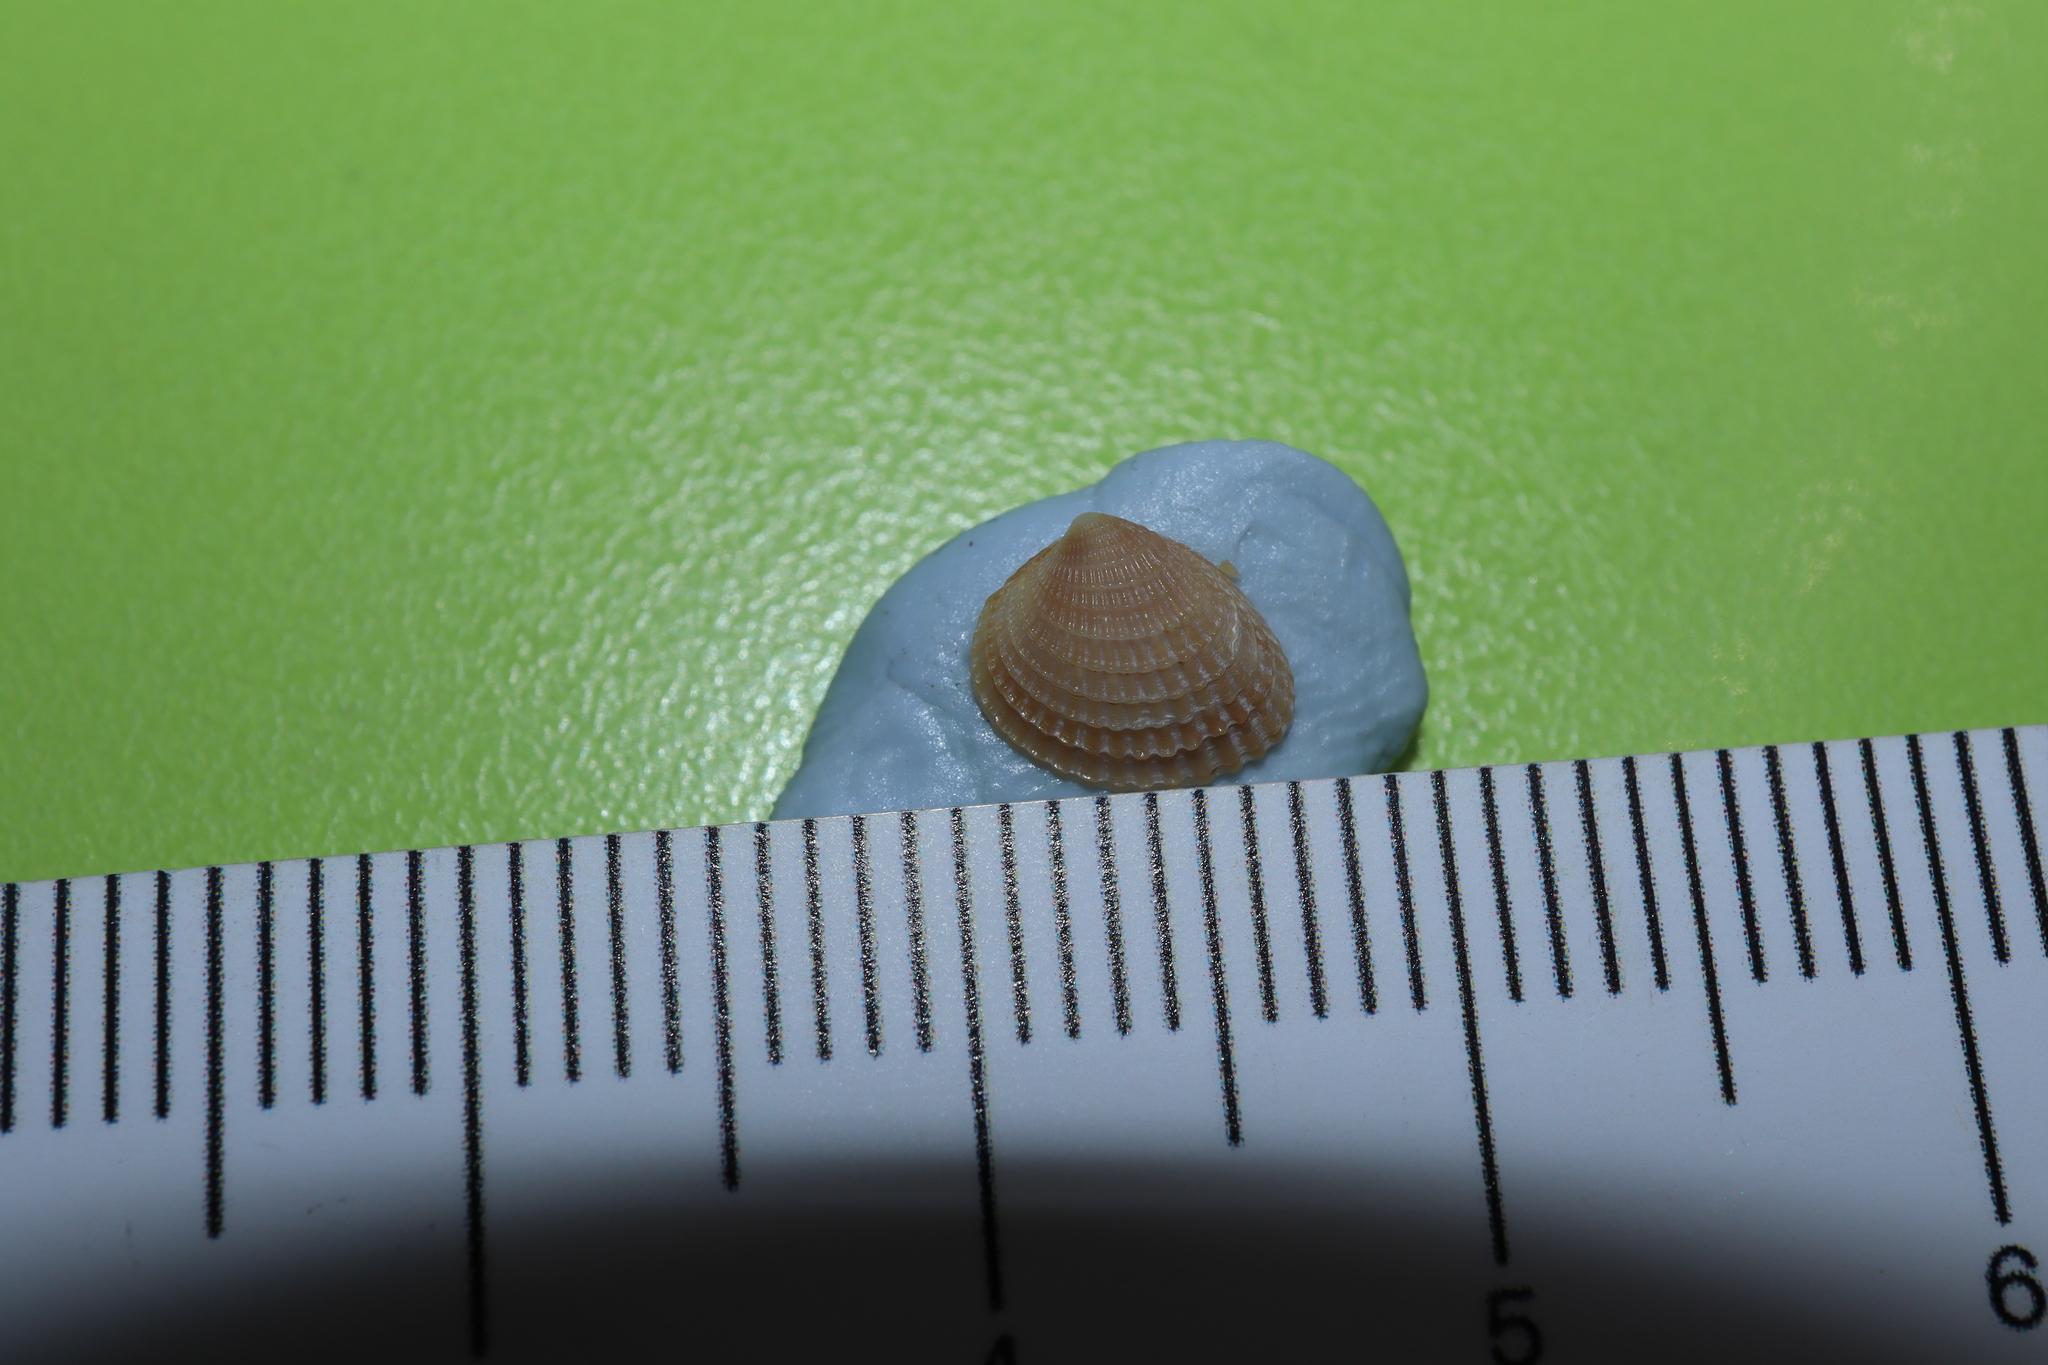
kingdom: Animalia
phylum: Mollusca
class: Bivalvia
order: Venerida
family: Veneridae
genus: Timoclea
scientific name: Timoclea scabra
